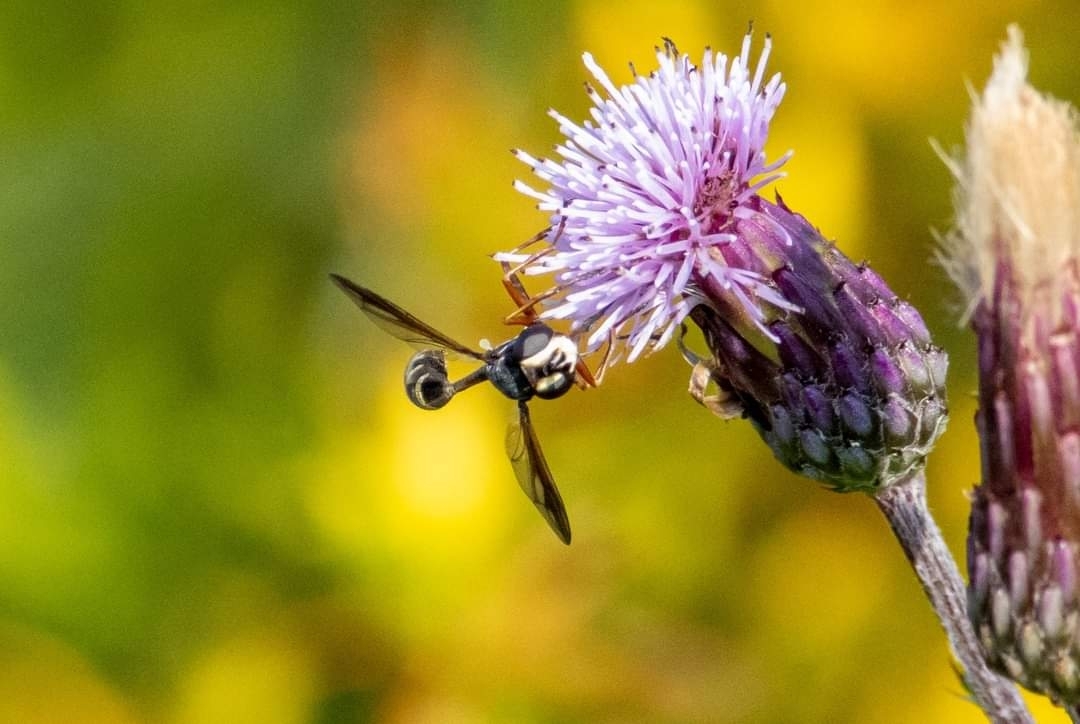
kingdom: Animalia
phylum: Arthropoda
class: Insecta
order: Diptera
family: Conopidae
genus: Physocephala
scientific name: Physocephala rufipes
